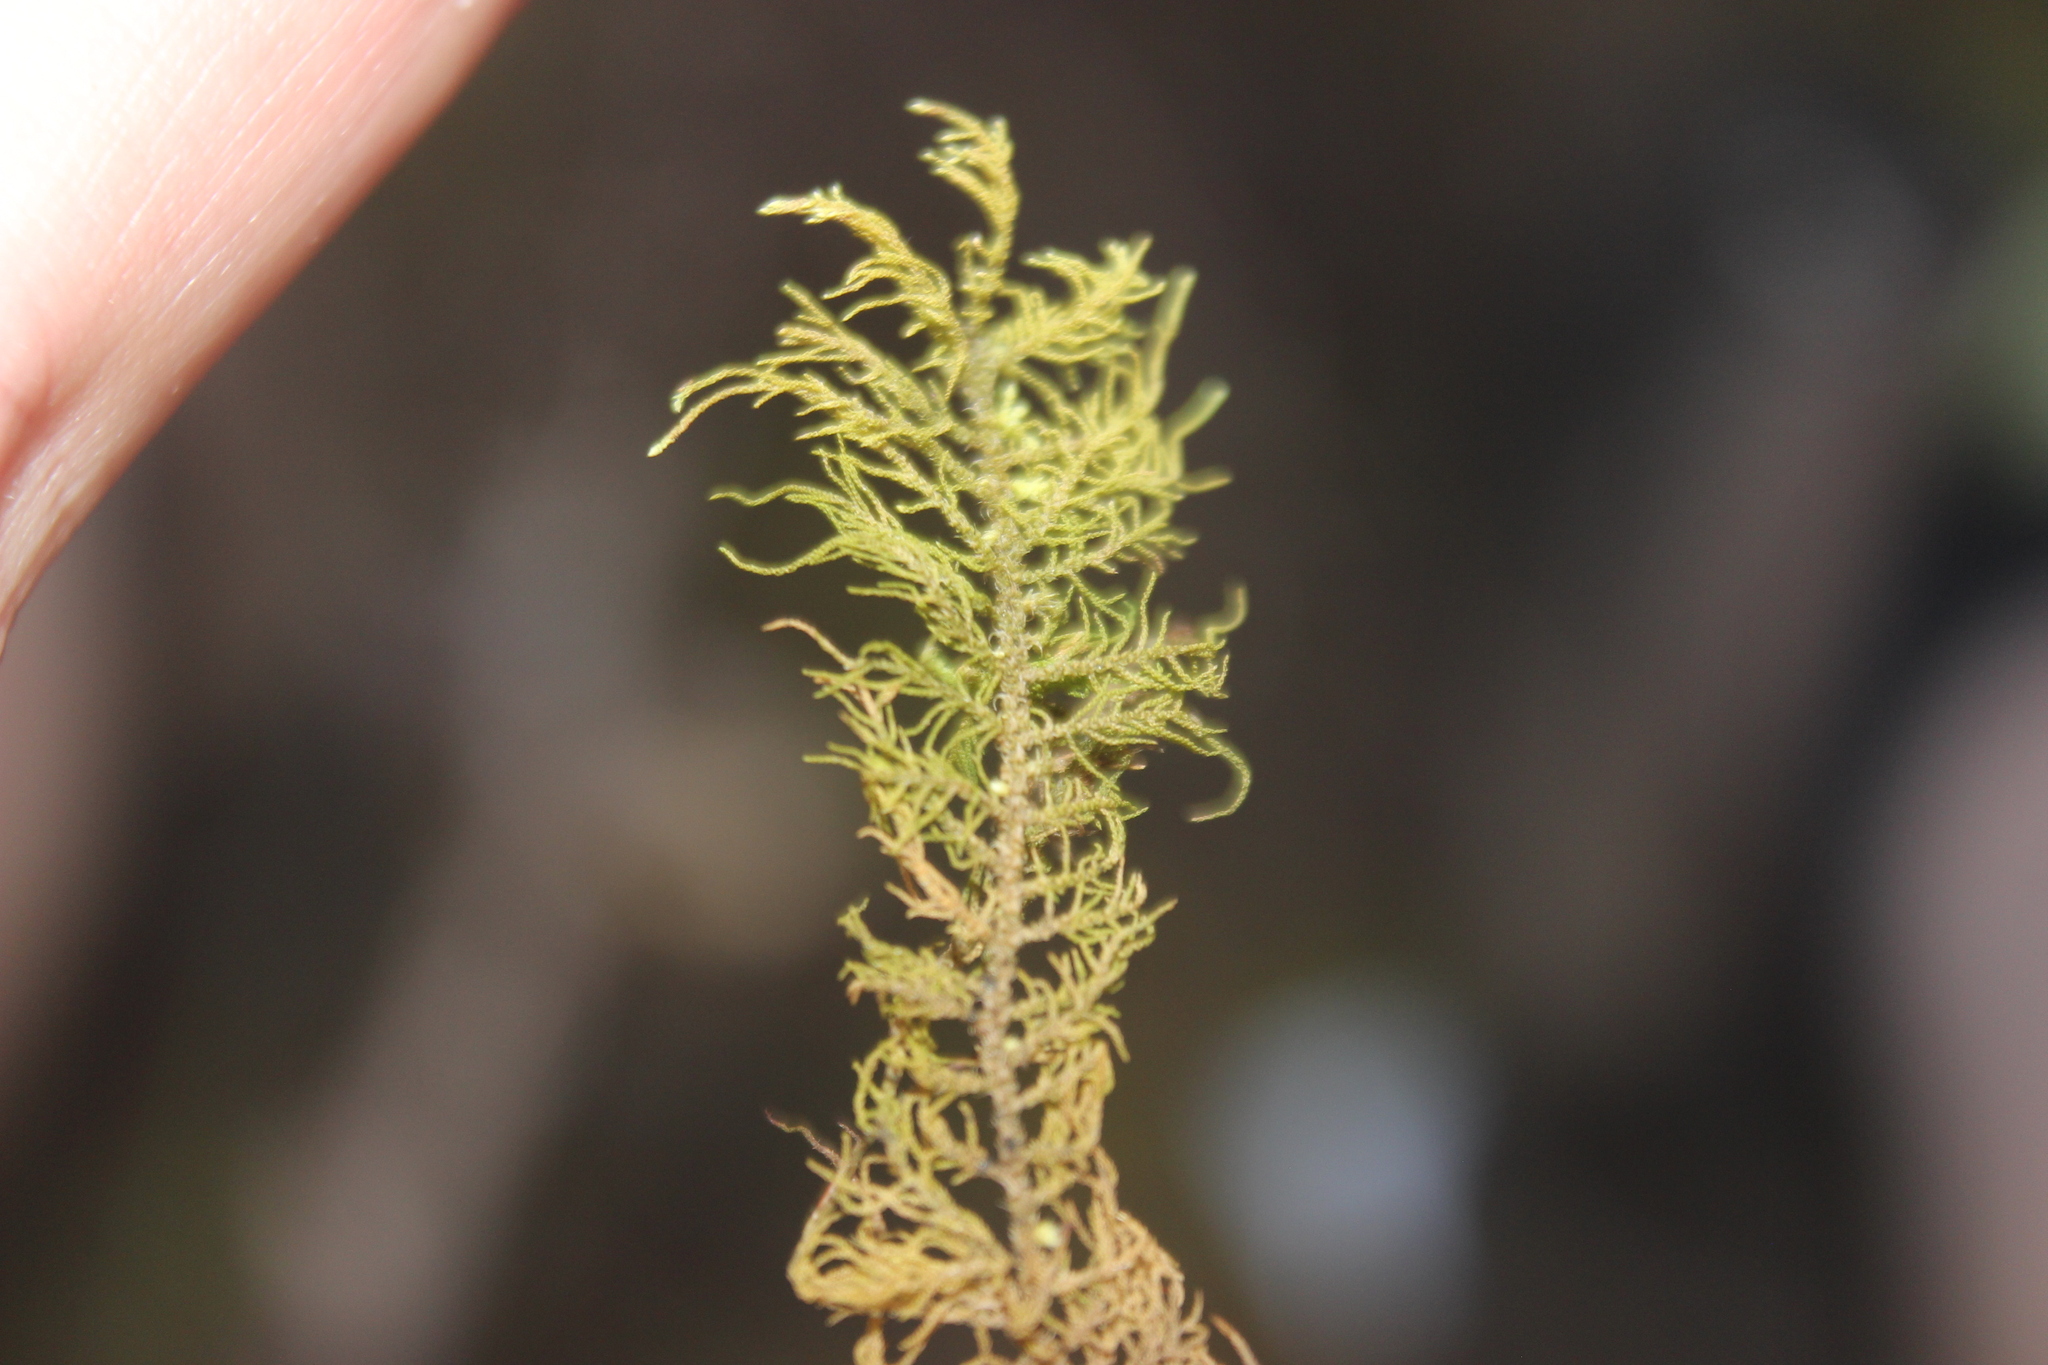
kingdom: Plantae
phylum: Bryophyta
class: Bryopsida
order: Hypnales
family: Thuidiaceae
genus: Thuidiopsis
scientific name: Thuidiopsis furfurosa
